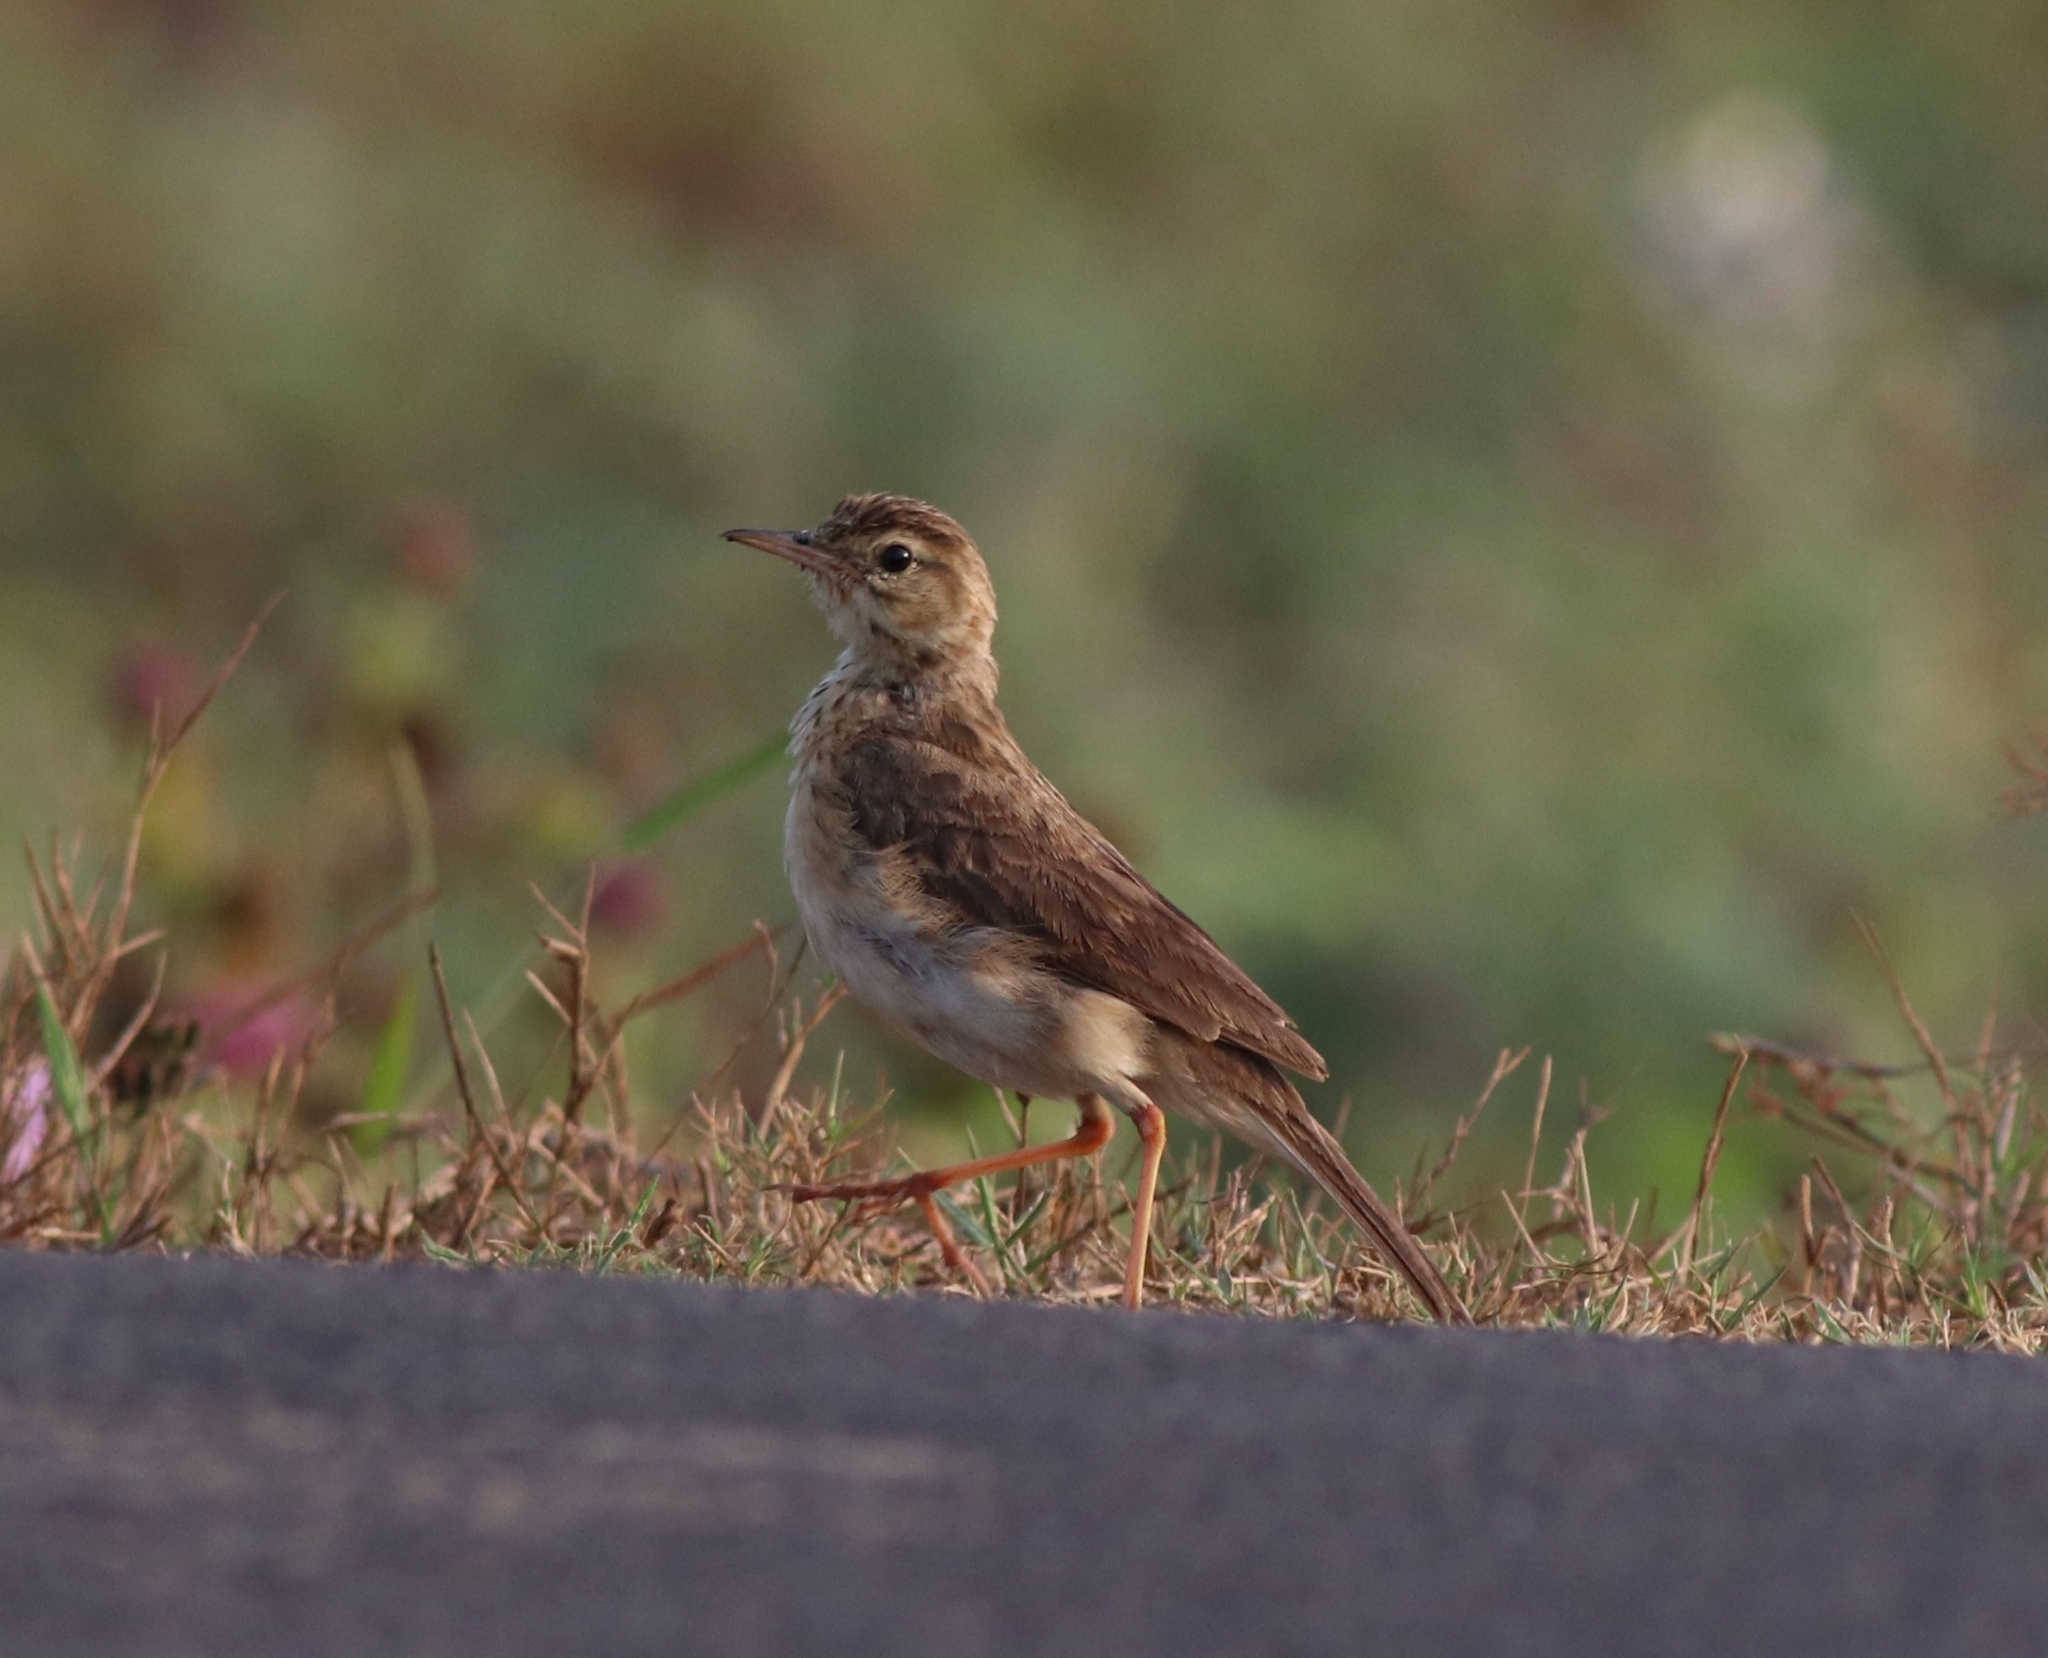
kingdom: Animalia
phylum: Chordata
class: Aves
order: Passeriformes
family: Motacillidae
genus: Anthus
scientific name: Anthus rufulus
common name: Paddyfield pipit
